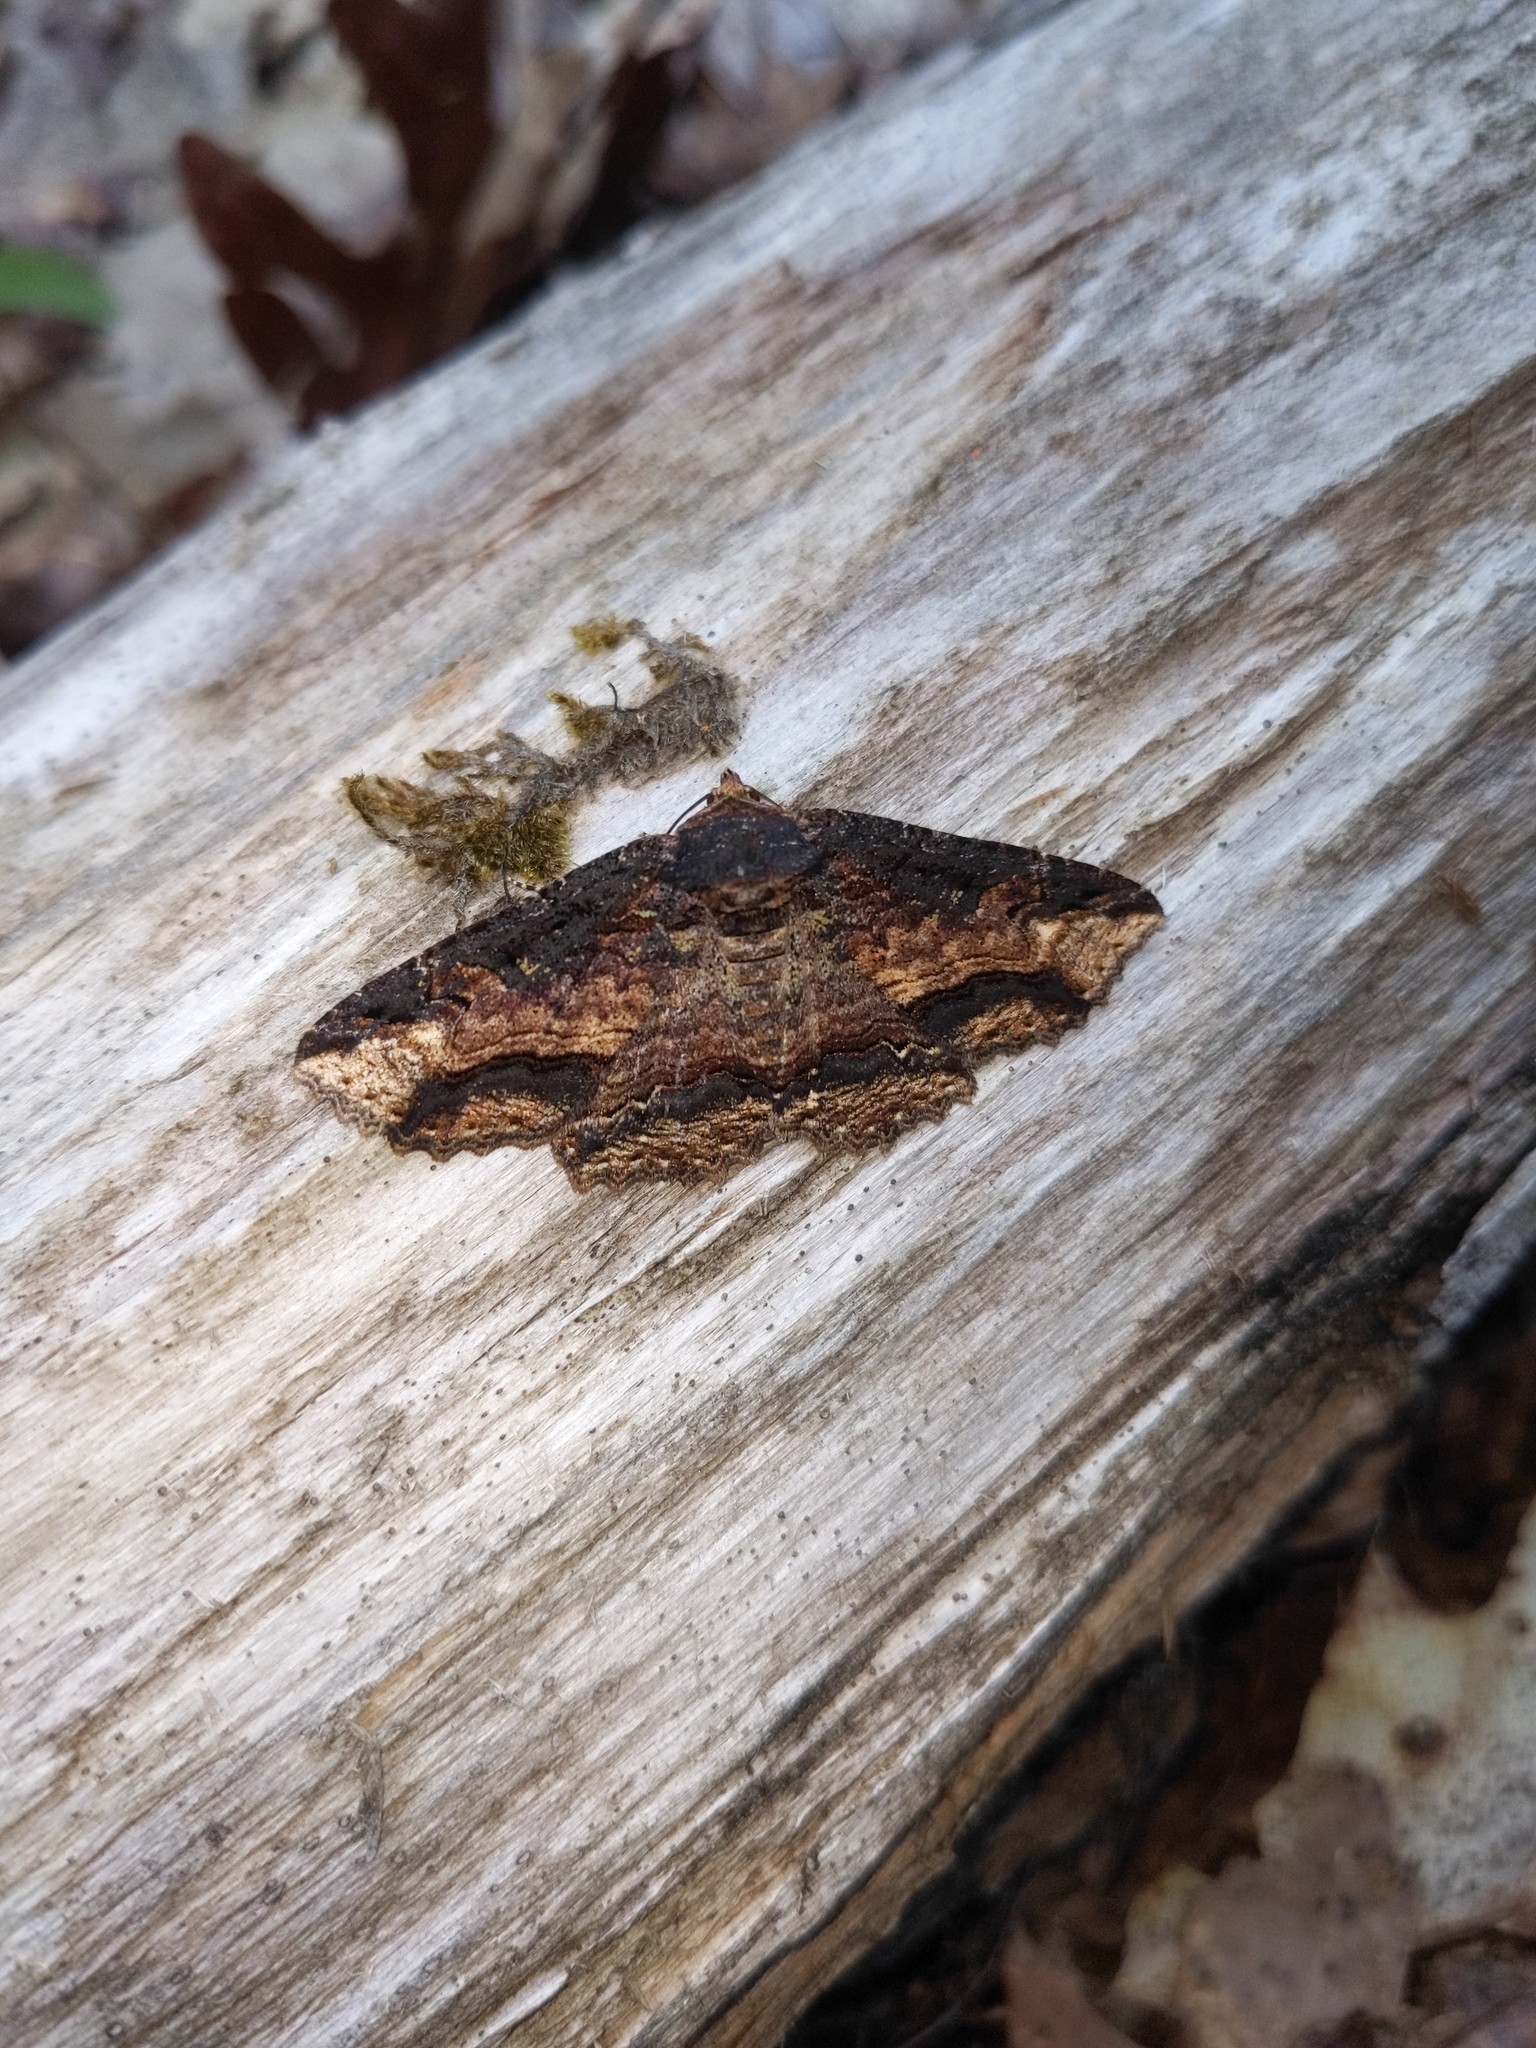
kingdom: Animalia
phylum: Arthropoda
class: Insecta
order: Lepidoptera
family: Erebidae
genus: Zale
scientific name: Zale minerea
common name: Colorful zale moth
